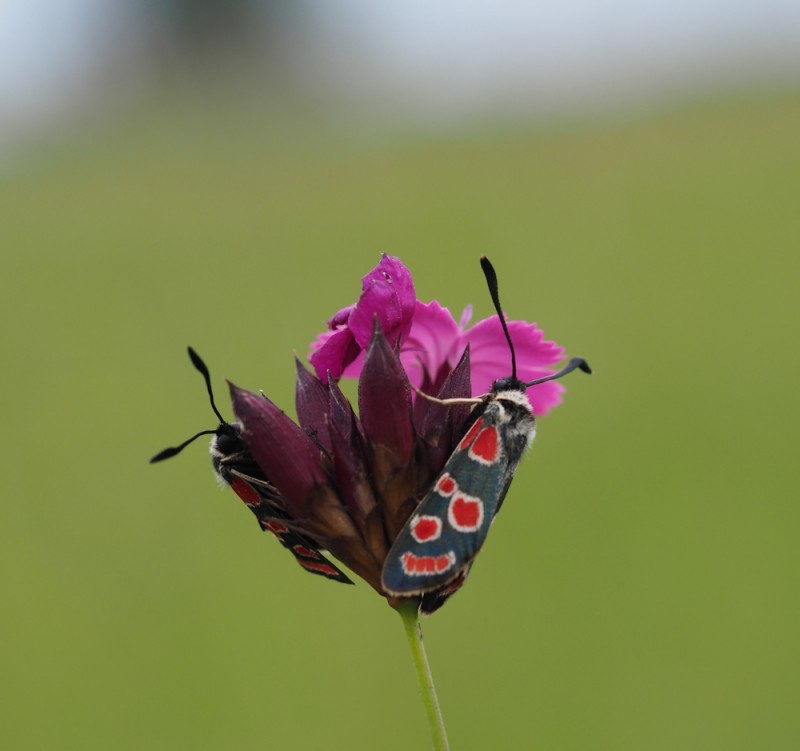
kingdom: Animalia
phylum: Arthropoda
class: Insecta
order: Lepidoptera
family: Zygaenidae
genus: Zygaena
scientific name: Zygaena carniolica
